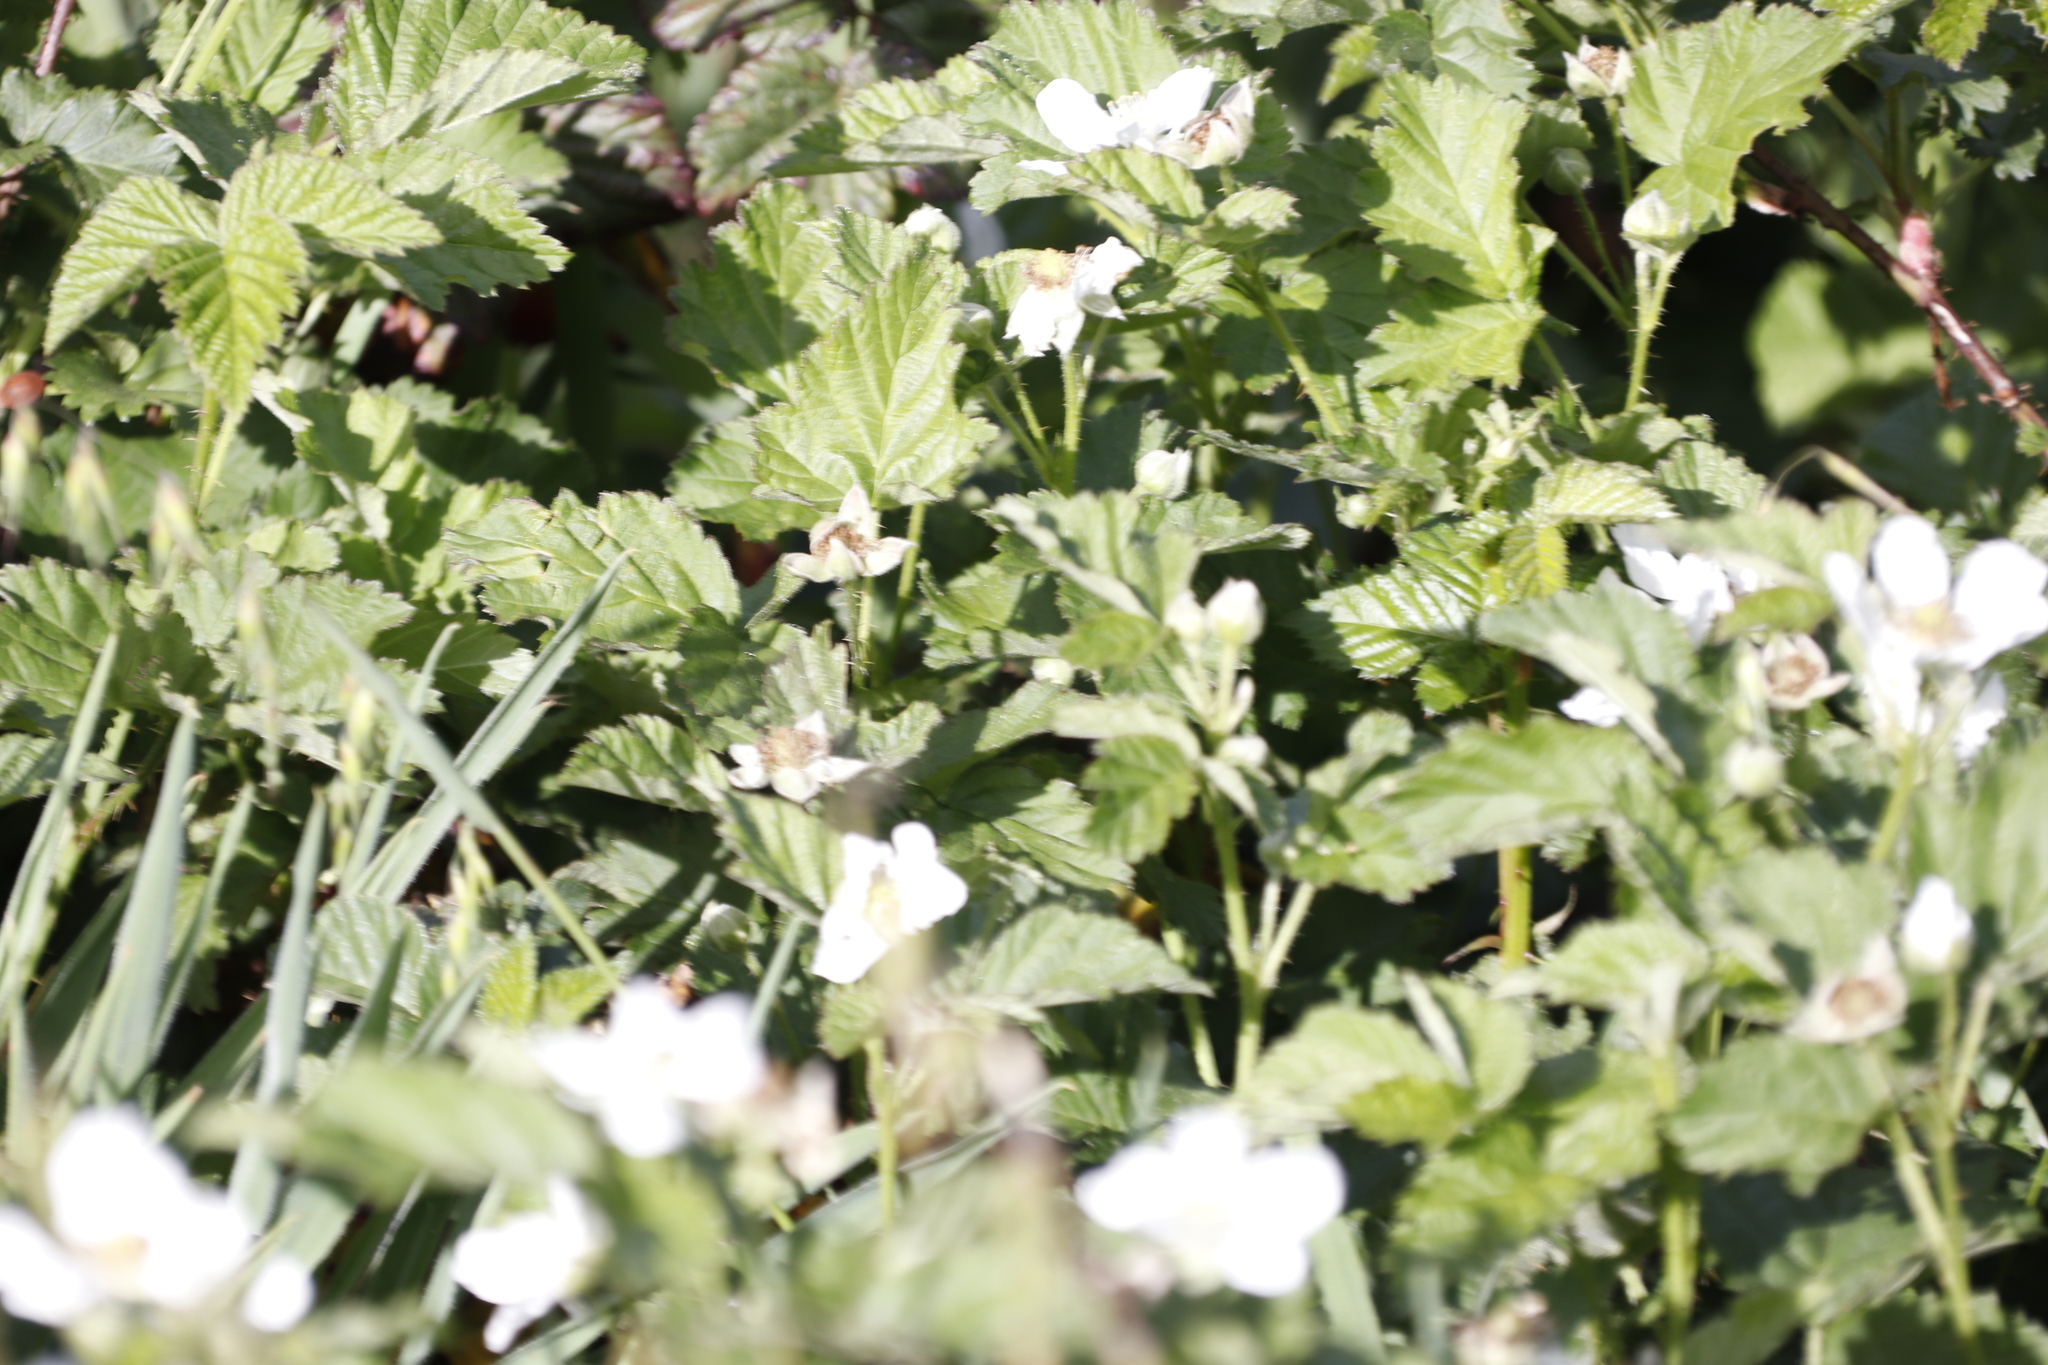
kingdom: Plantae
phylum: Tracheophyta
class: Magnoliopsida
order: Rosales
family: Rosaceae
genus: Rubus
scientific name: Rubus vitifolius
